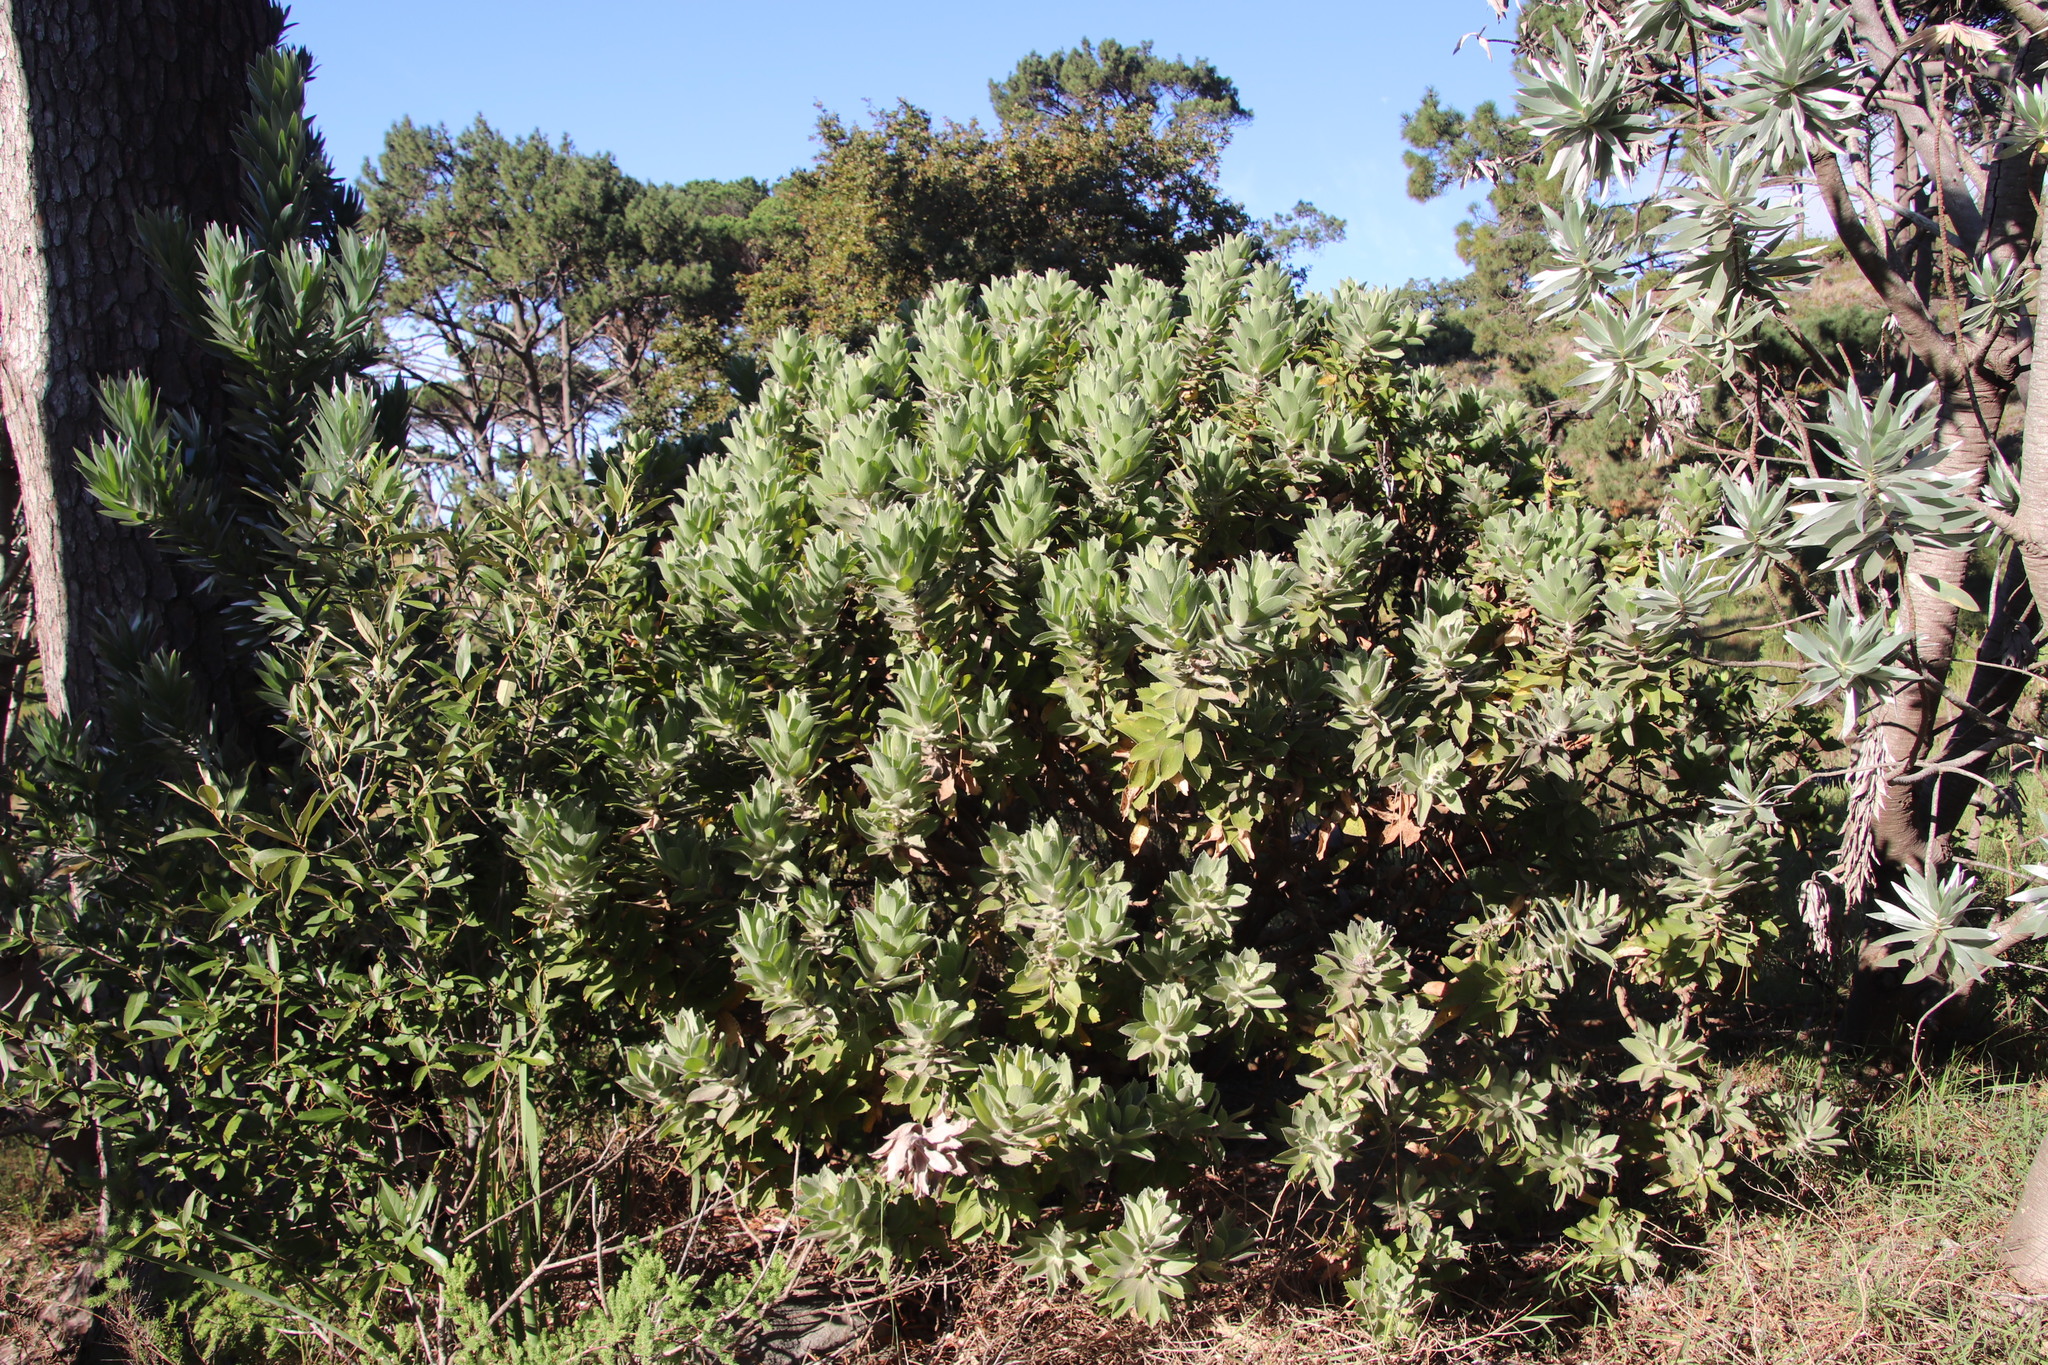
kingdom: Plantae
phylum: Tracheophyta
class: Magnoliopsida
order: Proteales
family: Proteaceae
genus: Leucospermum
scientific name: Leucospermum conocarpodendron
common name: Tree pincushion
